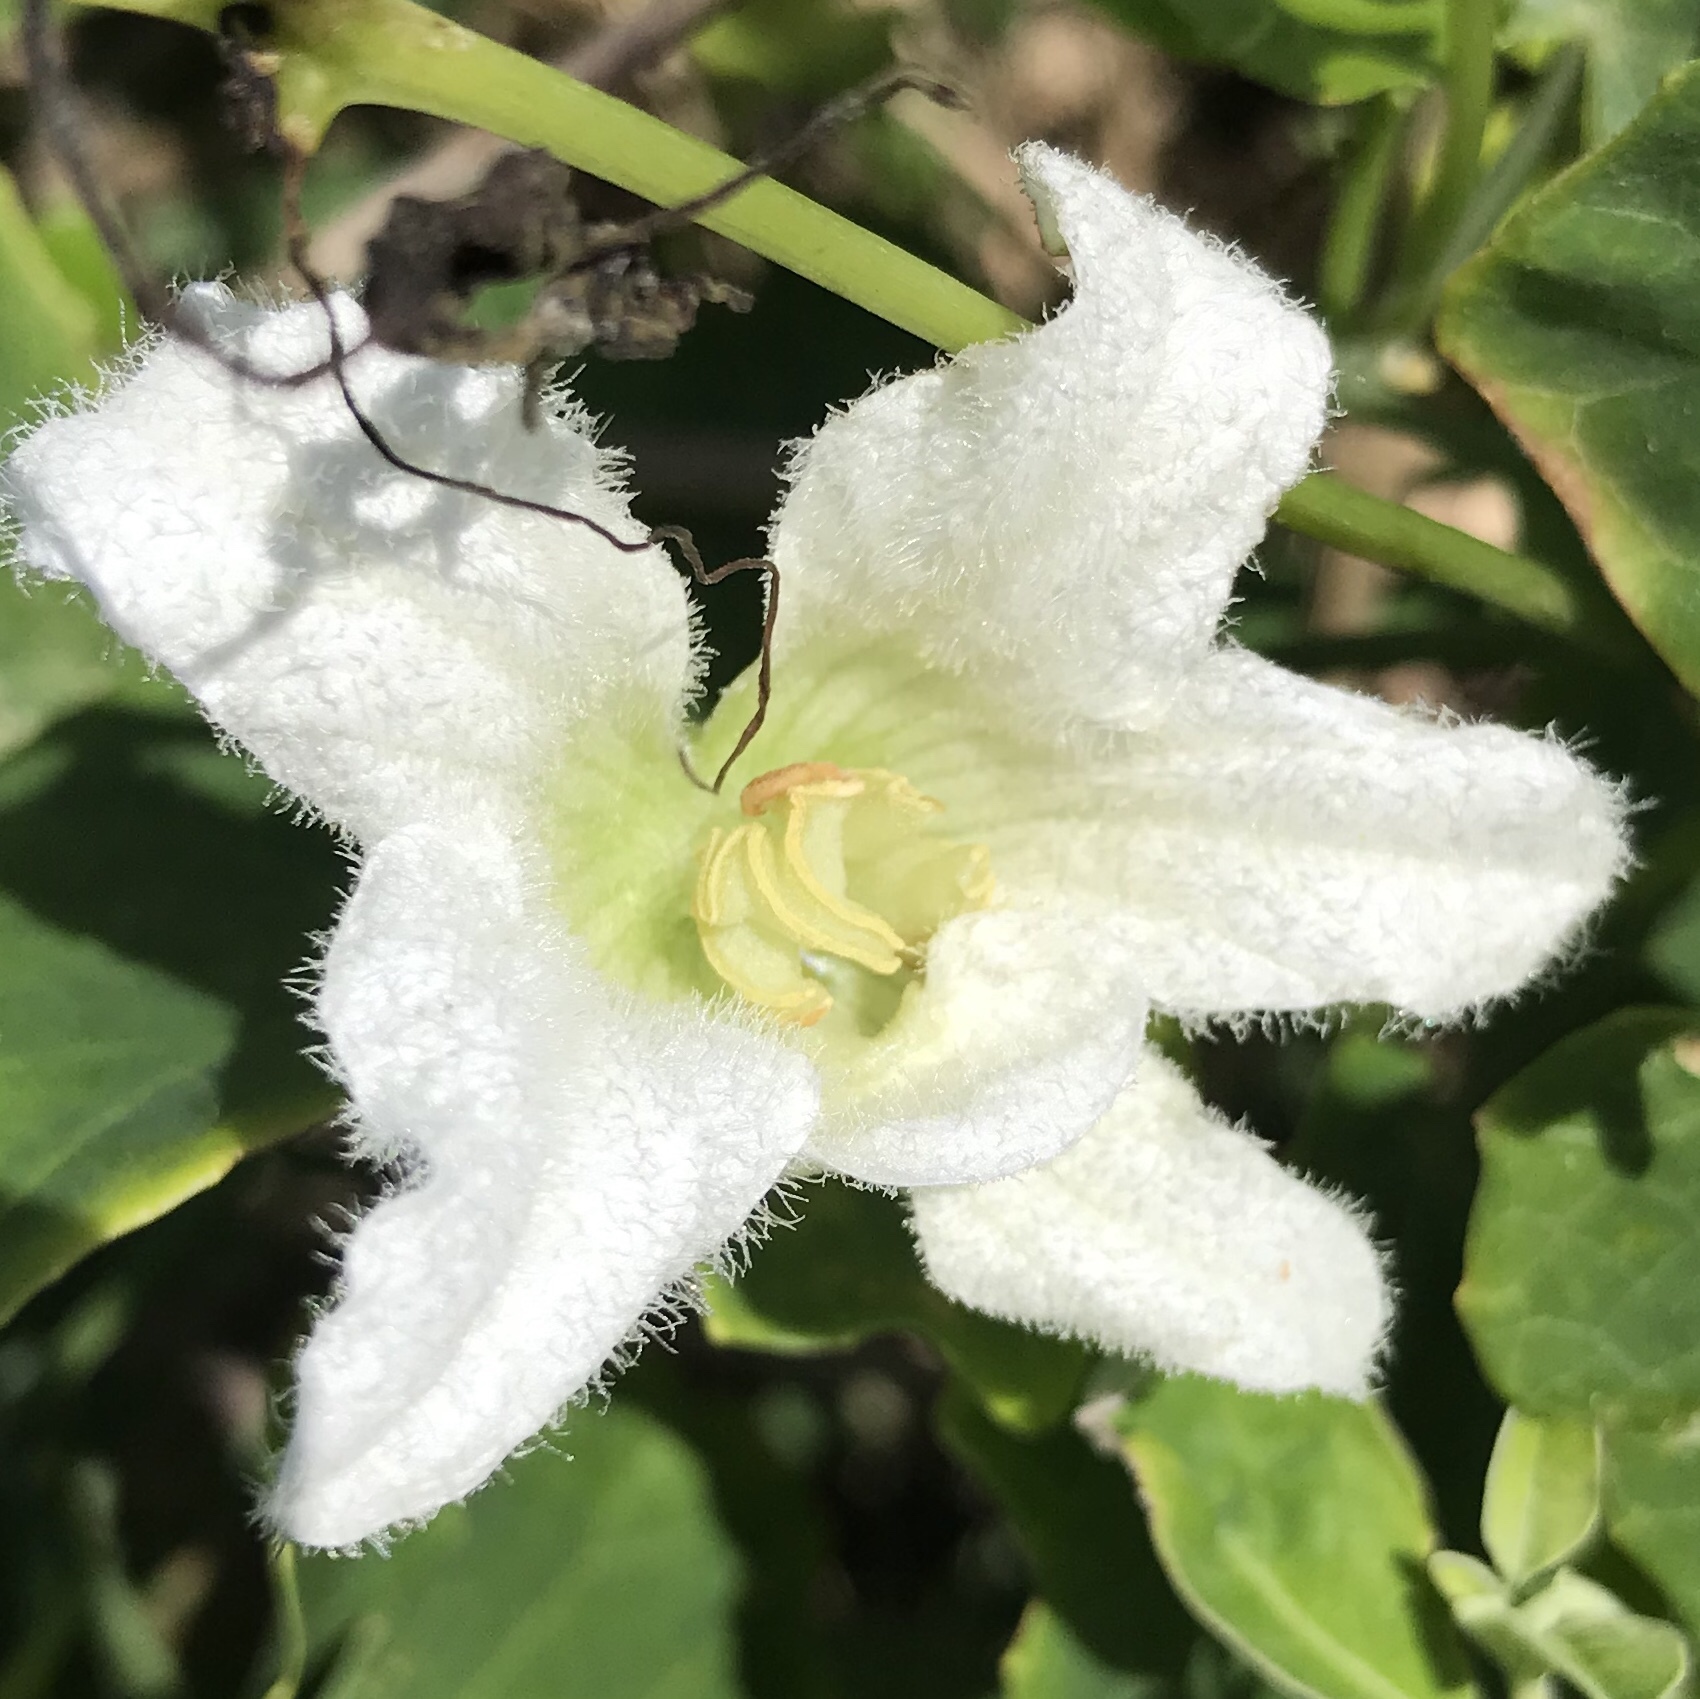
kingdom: Plantae
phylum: Tracheophyta
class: Magnoliopsida
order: Cucurbitales
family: Cucurbitaceae
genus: Coccinia
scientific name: Coccinia grandis
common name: Ivy gourd
